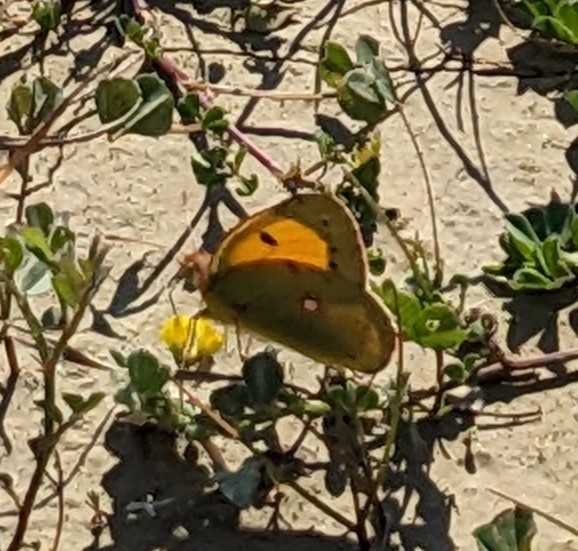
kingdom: Animalia
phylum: Arthropoda
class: Insecta
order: Lepidoptera
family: Pieridae
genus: Colias
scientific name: Colias croceus
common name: Clouded yellow
